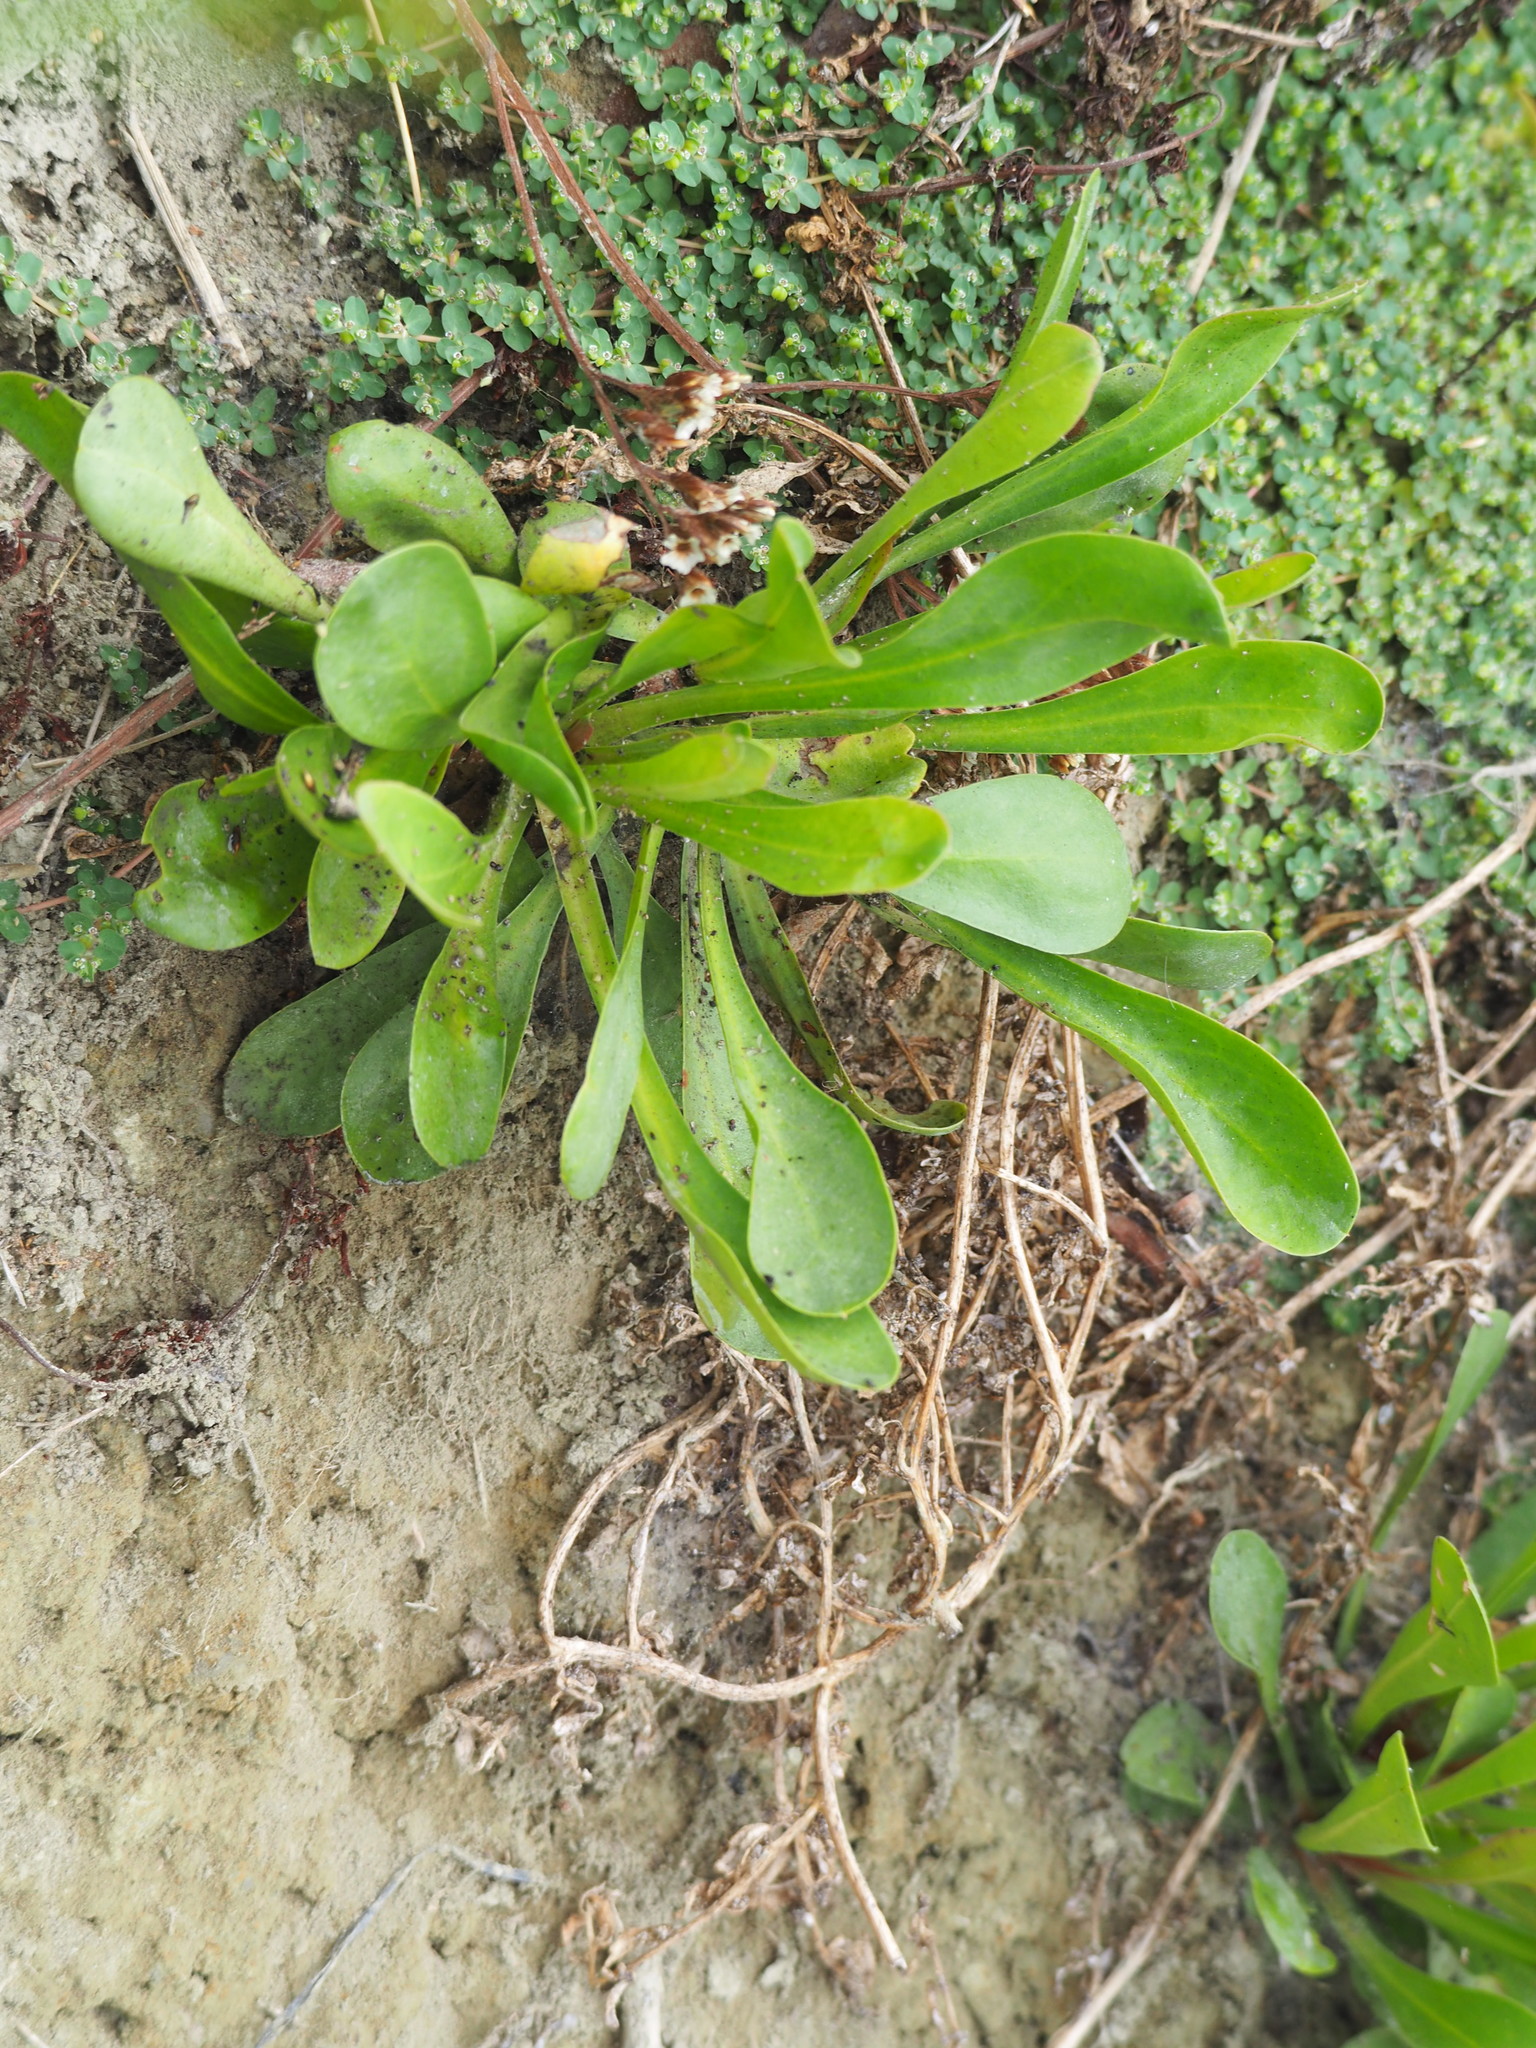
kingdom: Plantae
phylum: Tracheophyta
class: Magnoliopsida
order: Caryophyllales
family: Plumbaginaceae
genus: Limonium
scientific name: Limonium sinense
